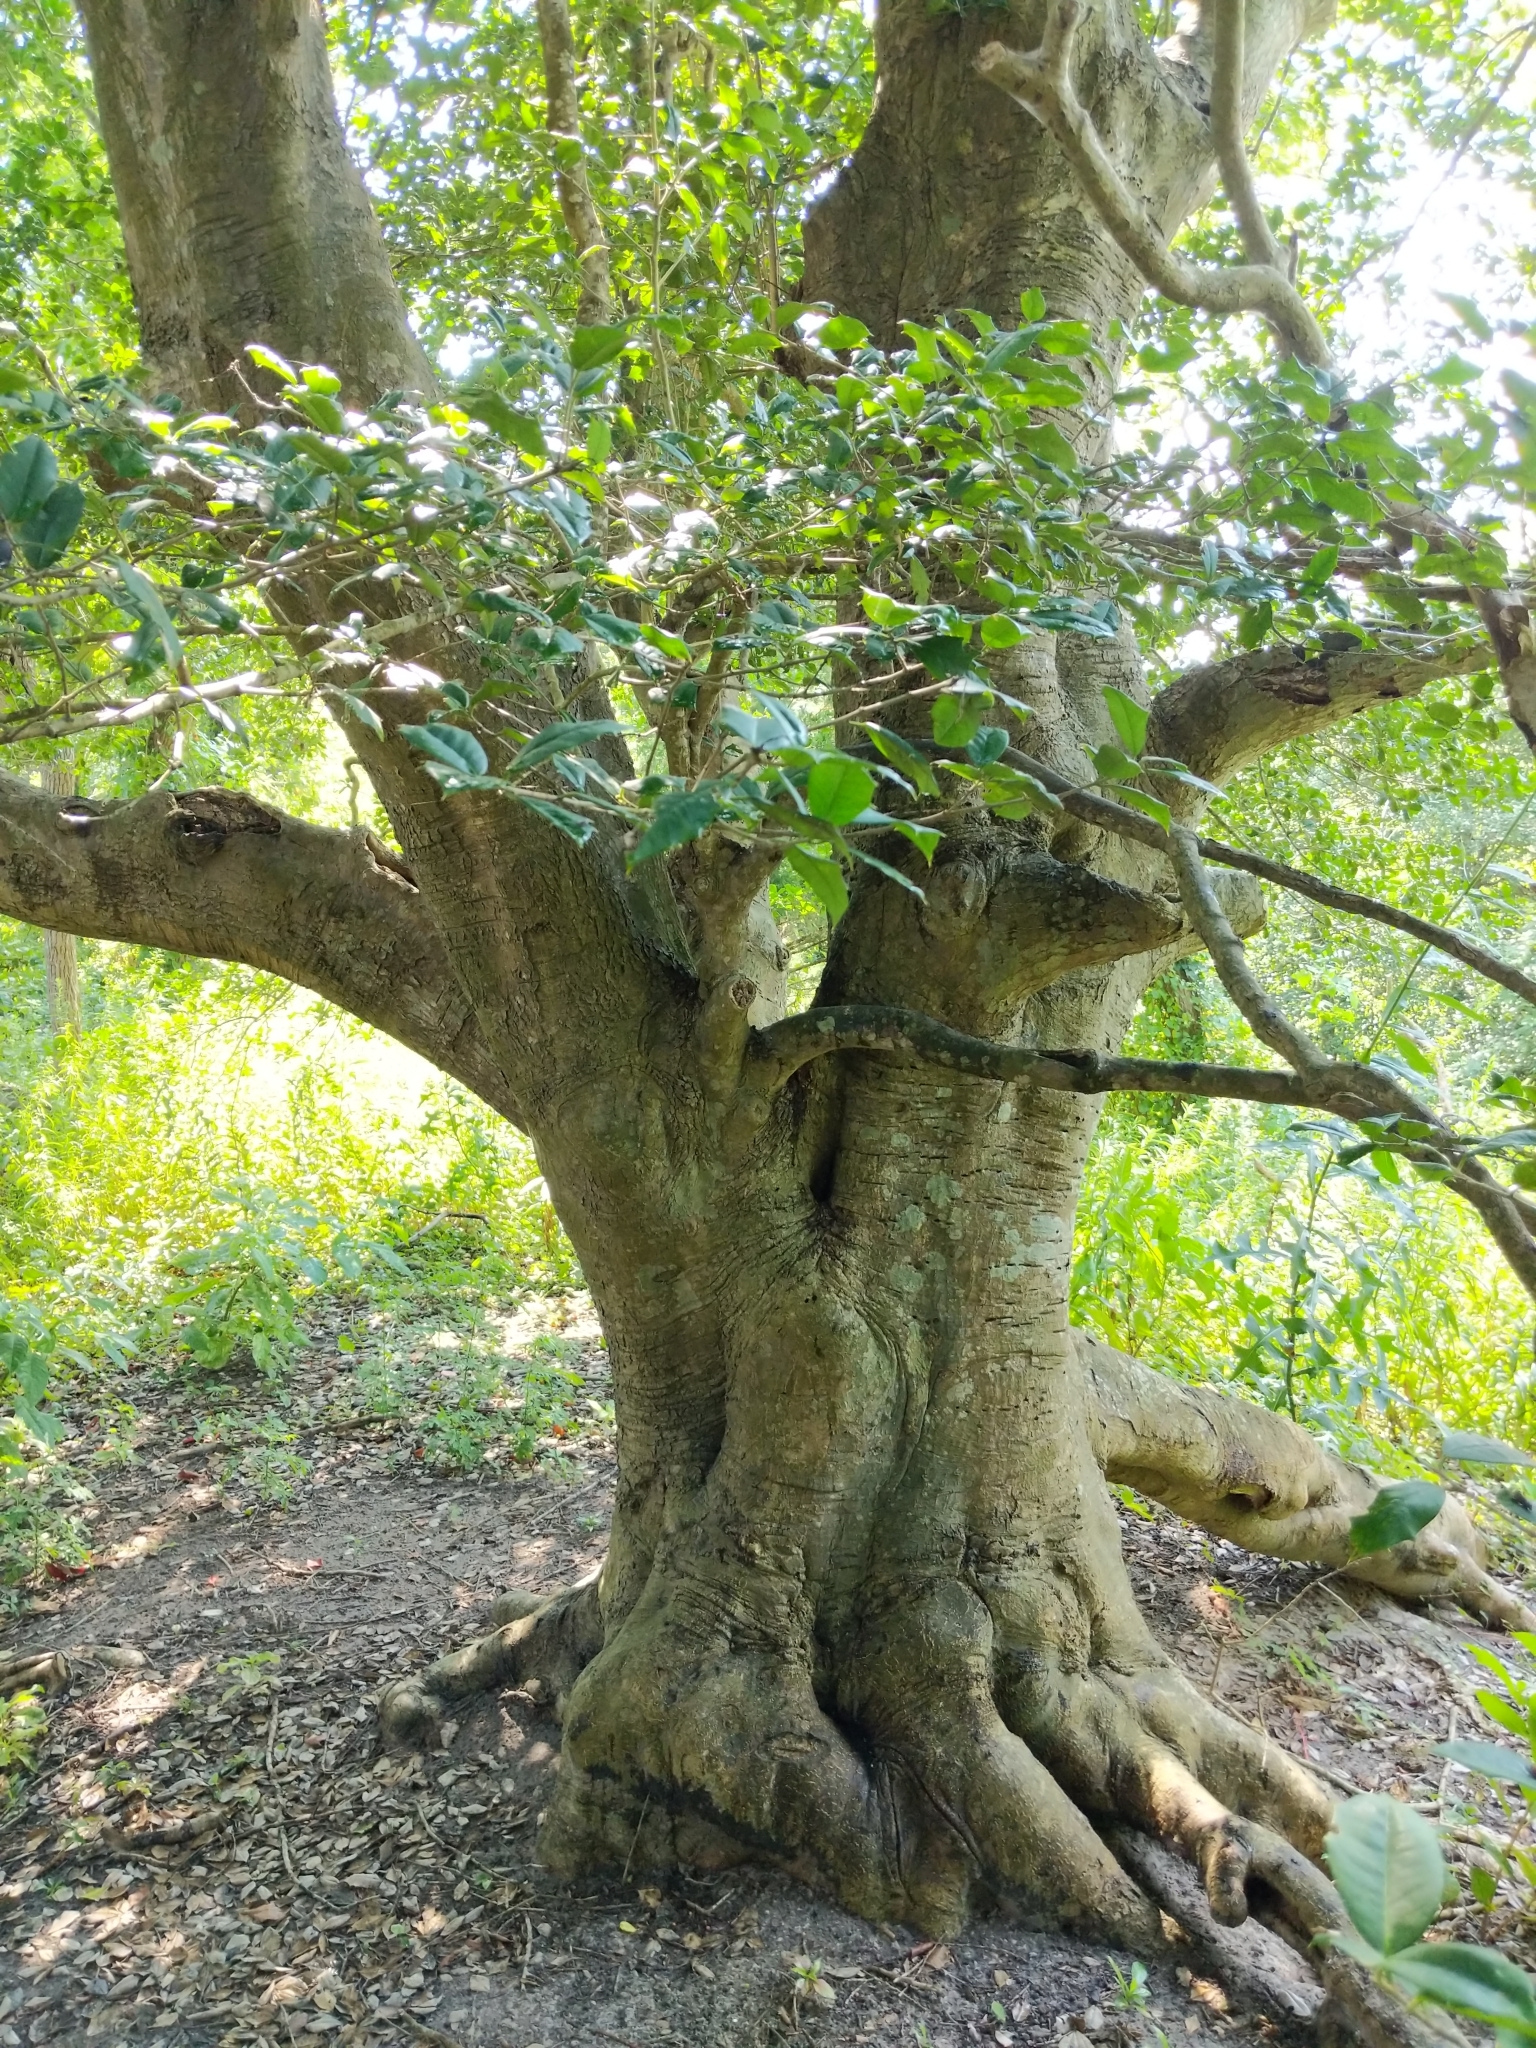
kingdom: Plantae
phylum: Tracheophyta
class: Magnoliopsida
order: Aquifoliales
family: Aquifoliaceae
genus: Ilex
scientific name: Ilex opaca
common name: American holly
